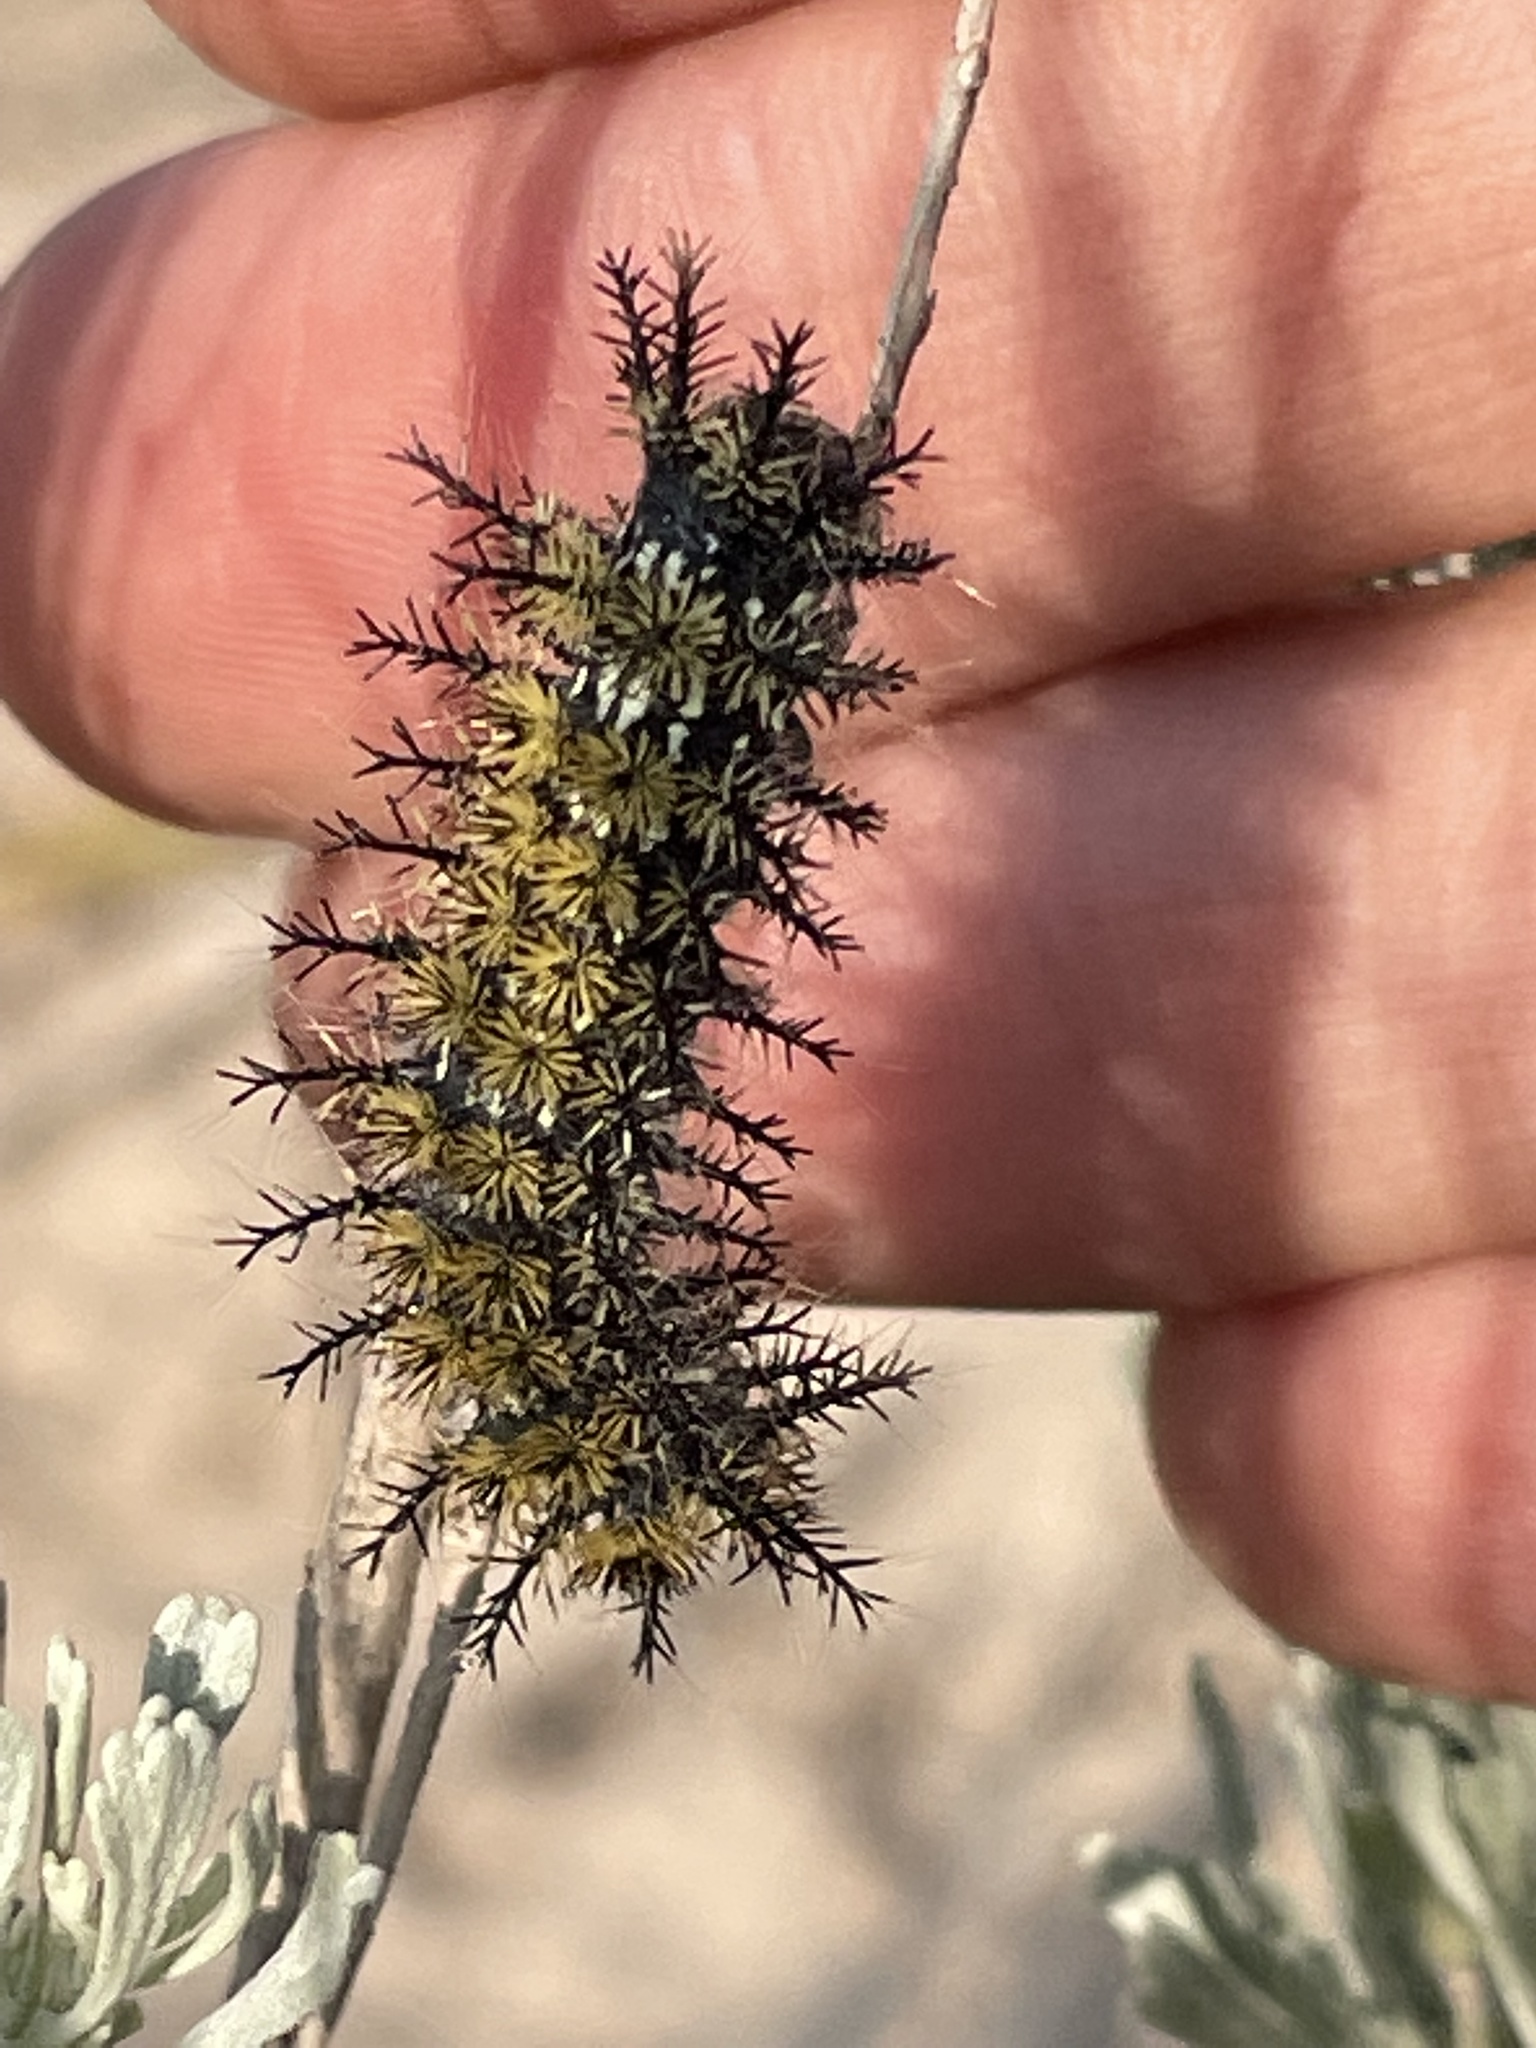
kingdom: Animalia
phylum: Arthropoda
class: Insecta
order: Lepidoptera
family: Saturniidae
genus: Hemileuca
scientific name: Hemileuca hera
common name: Hera sheepmoth
